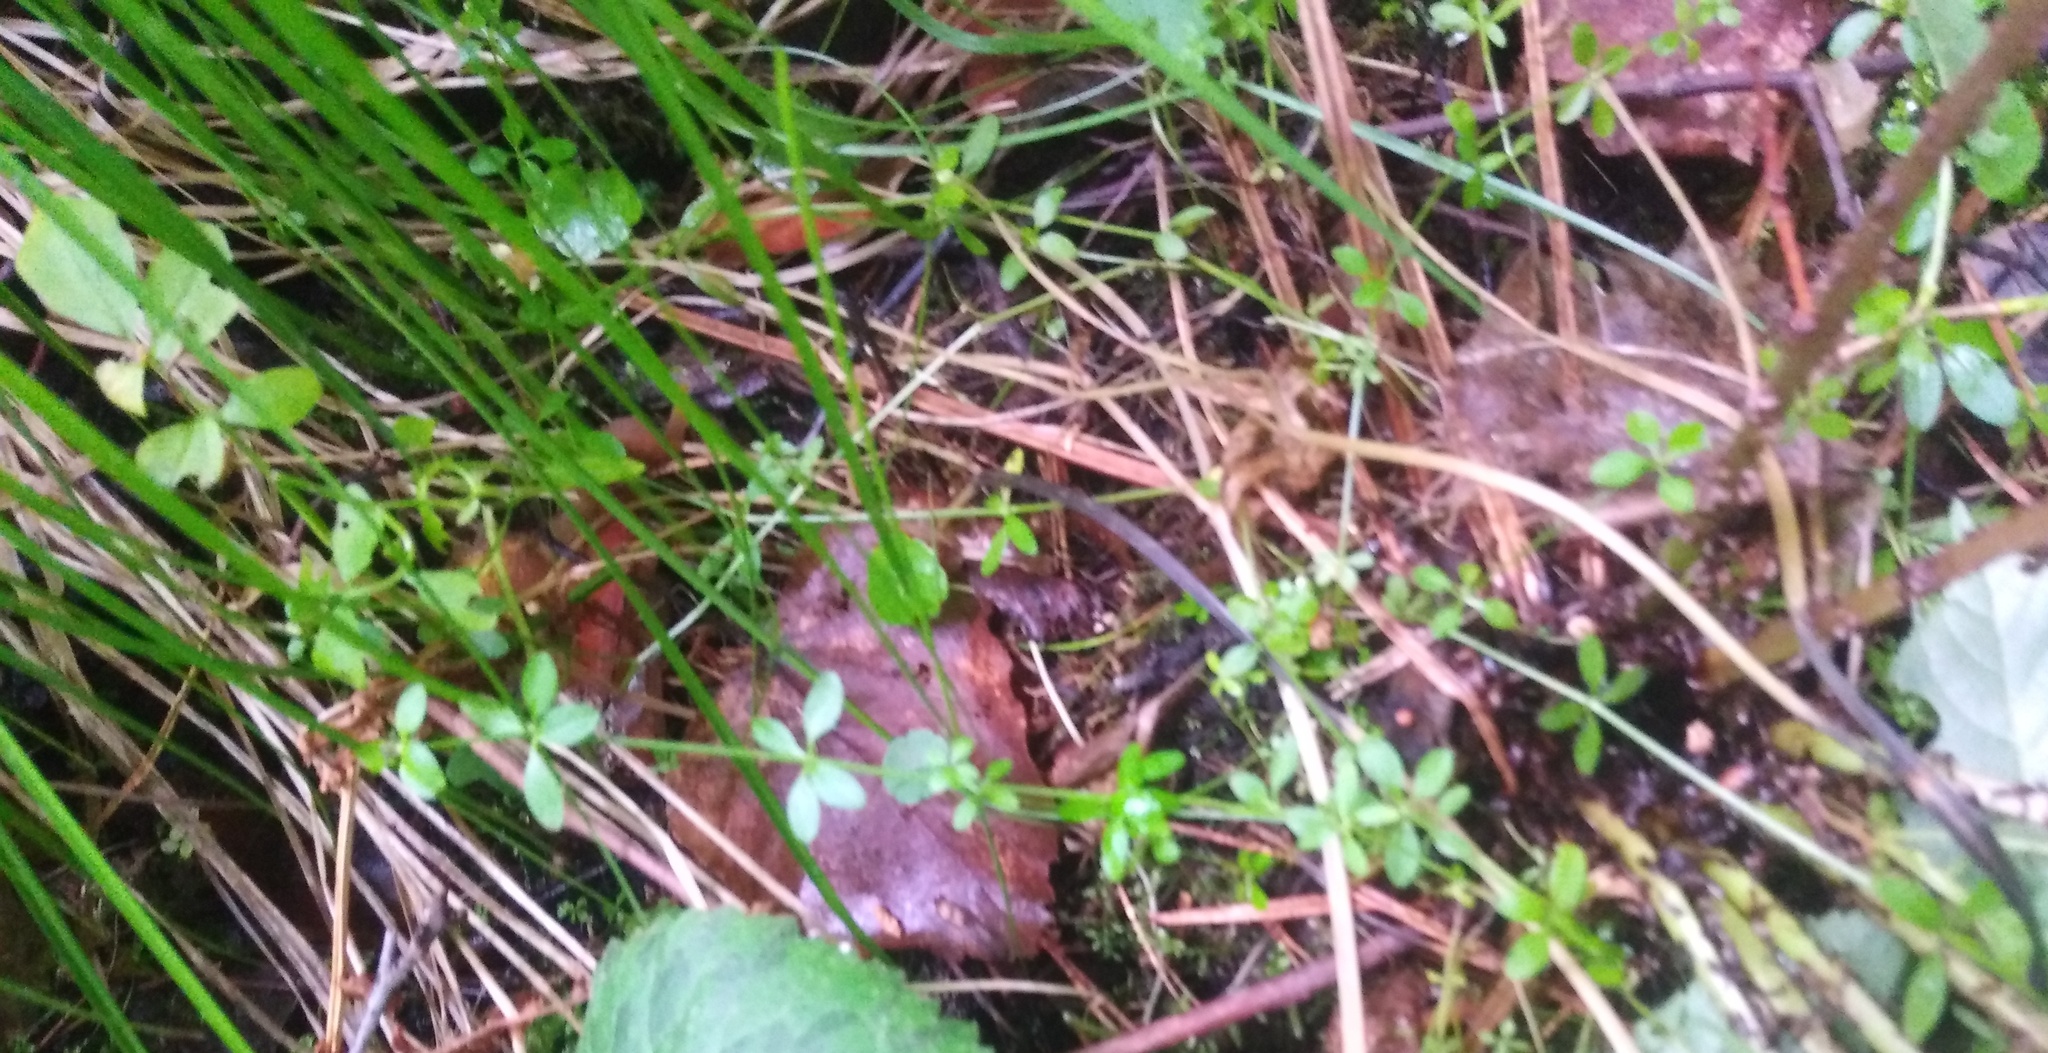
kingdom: Plantae
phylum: Tracheophyta
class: Magnoliopsida
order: Gentianales
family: Rubiaceae
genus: Galium
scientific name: Galium palustre
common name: Common marsh-bedstraw
